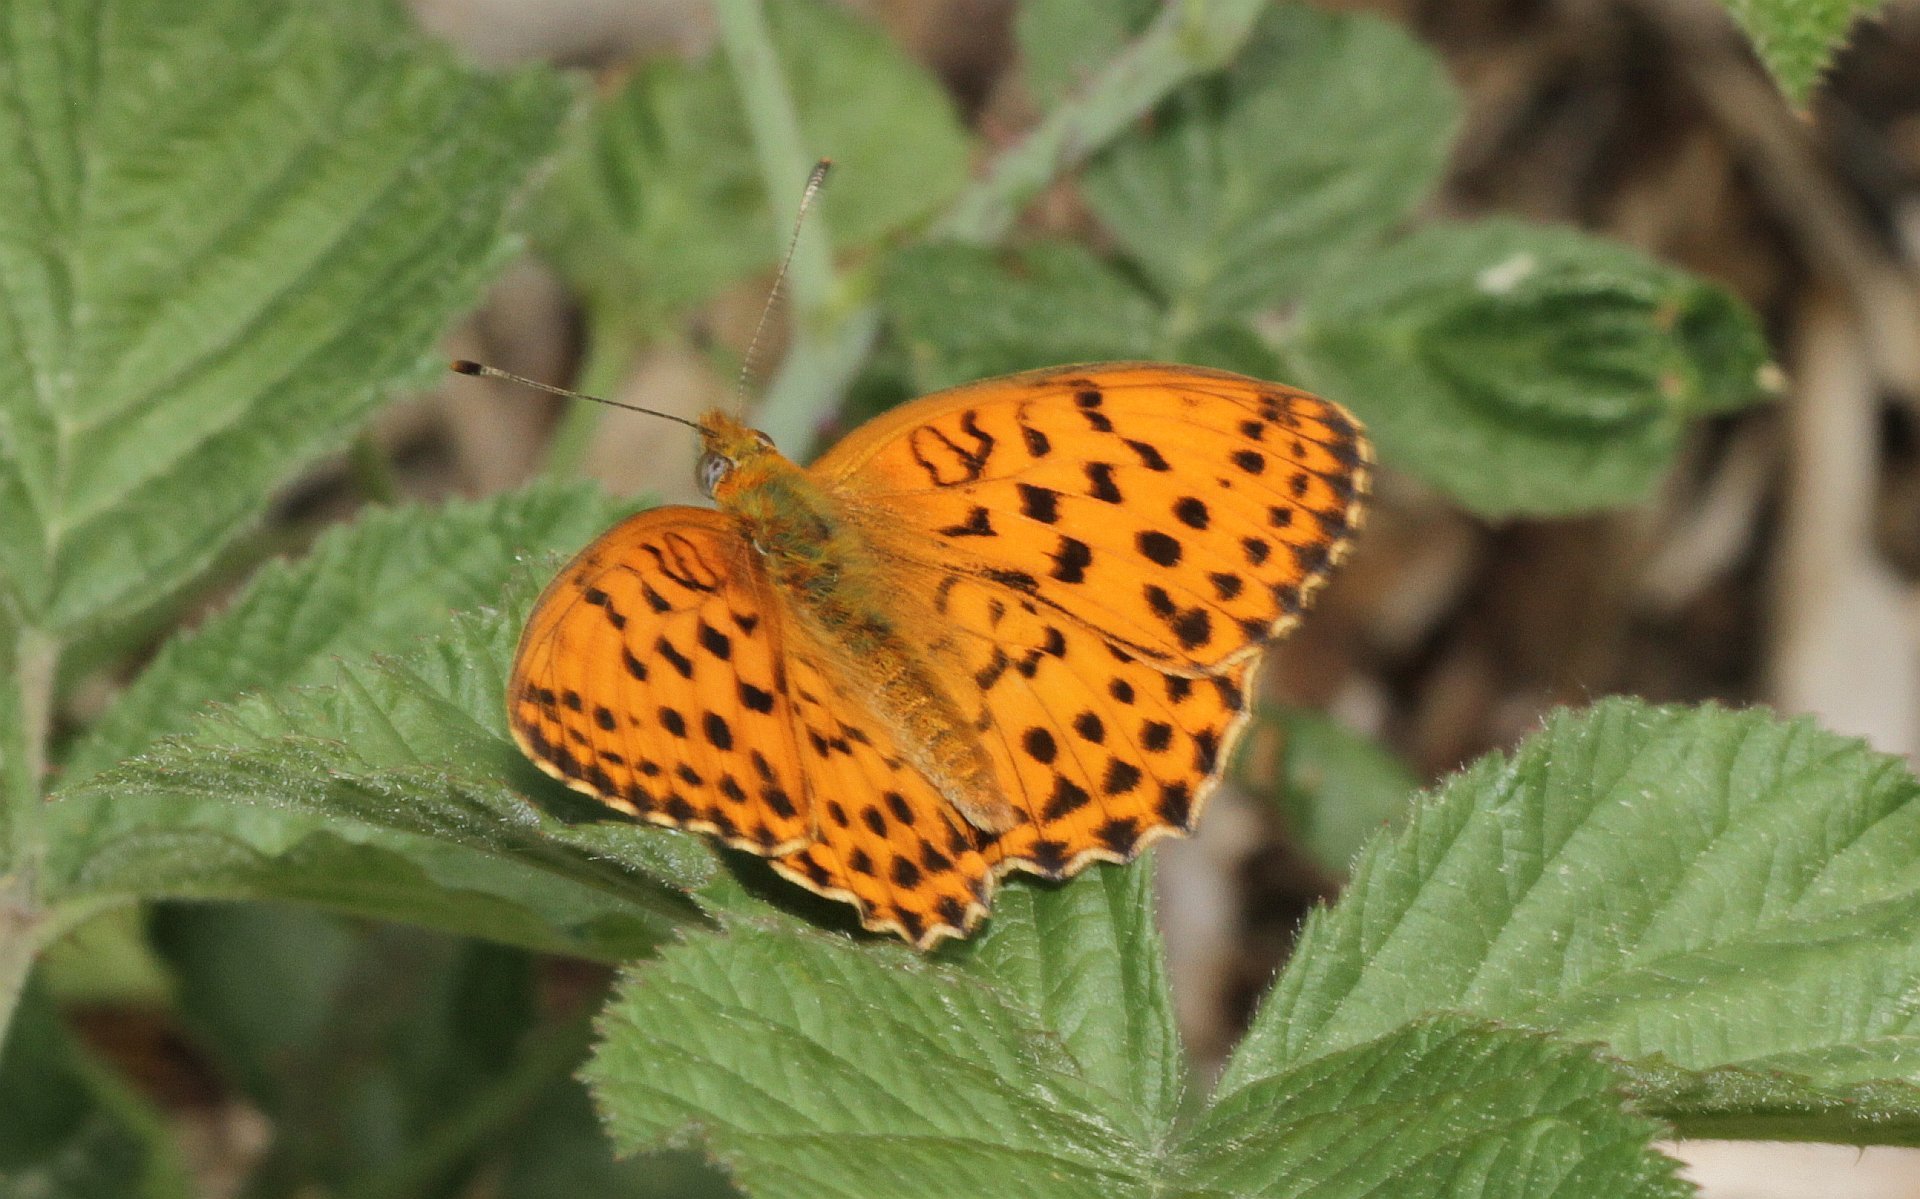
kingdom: Animalia
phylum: Arthropoda
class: Insecta
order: Lepidoptera
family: Nymphalidae
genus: Brenthis
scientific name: Brenthis daphne
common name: Marbled fritillary
